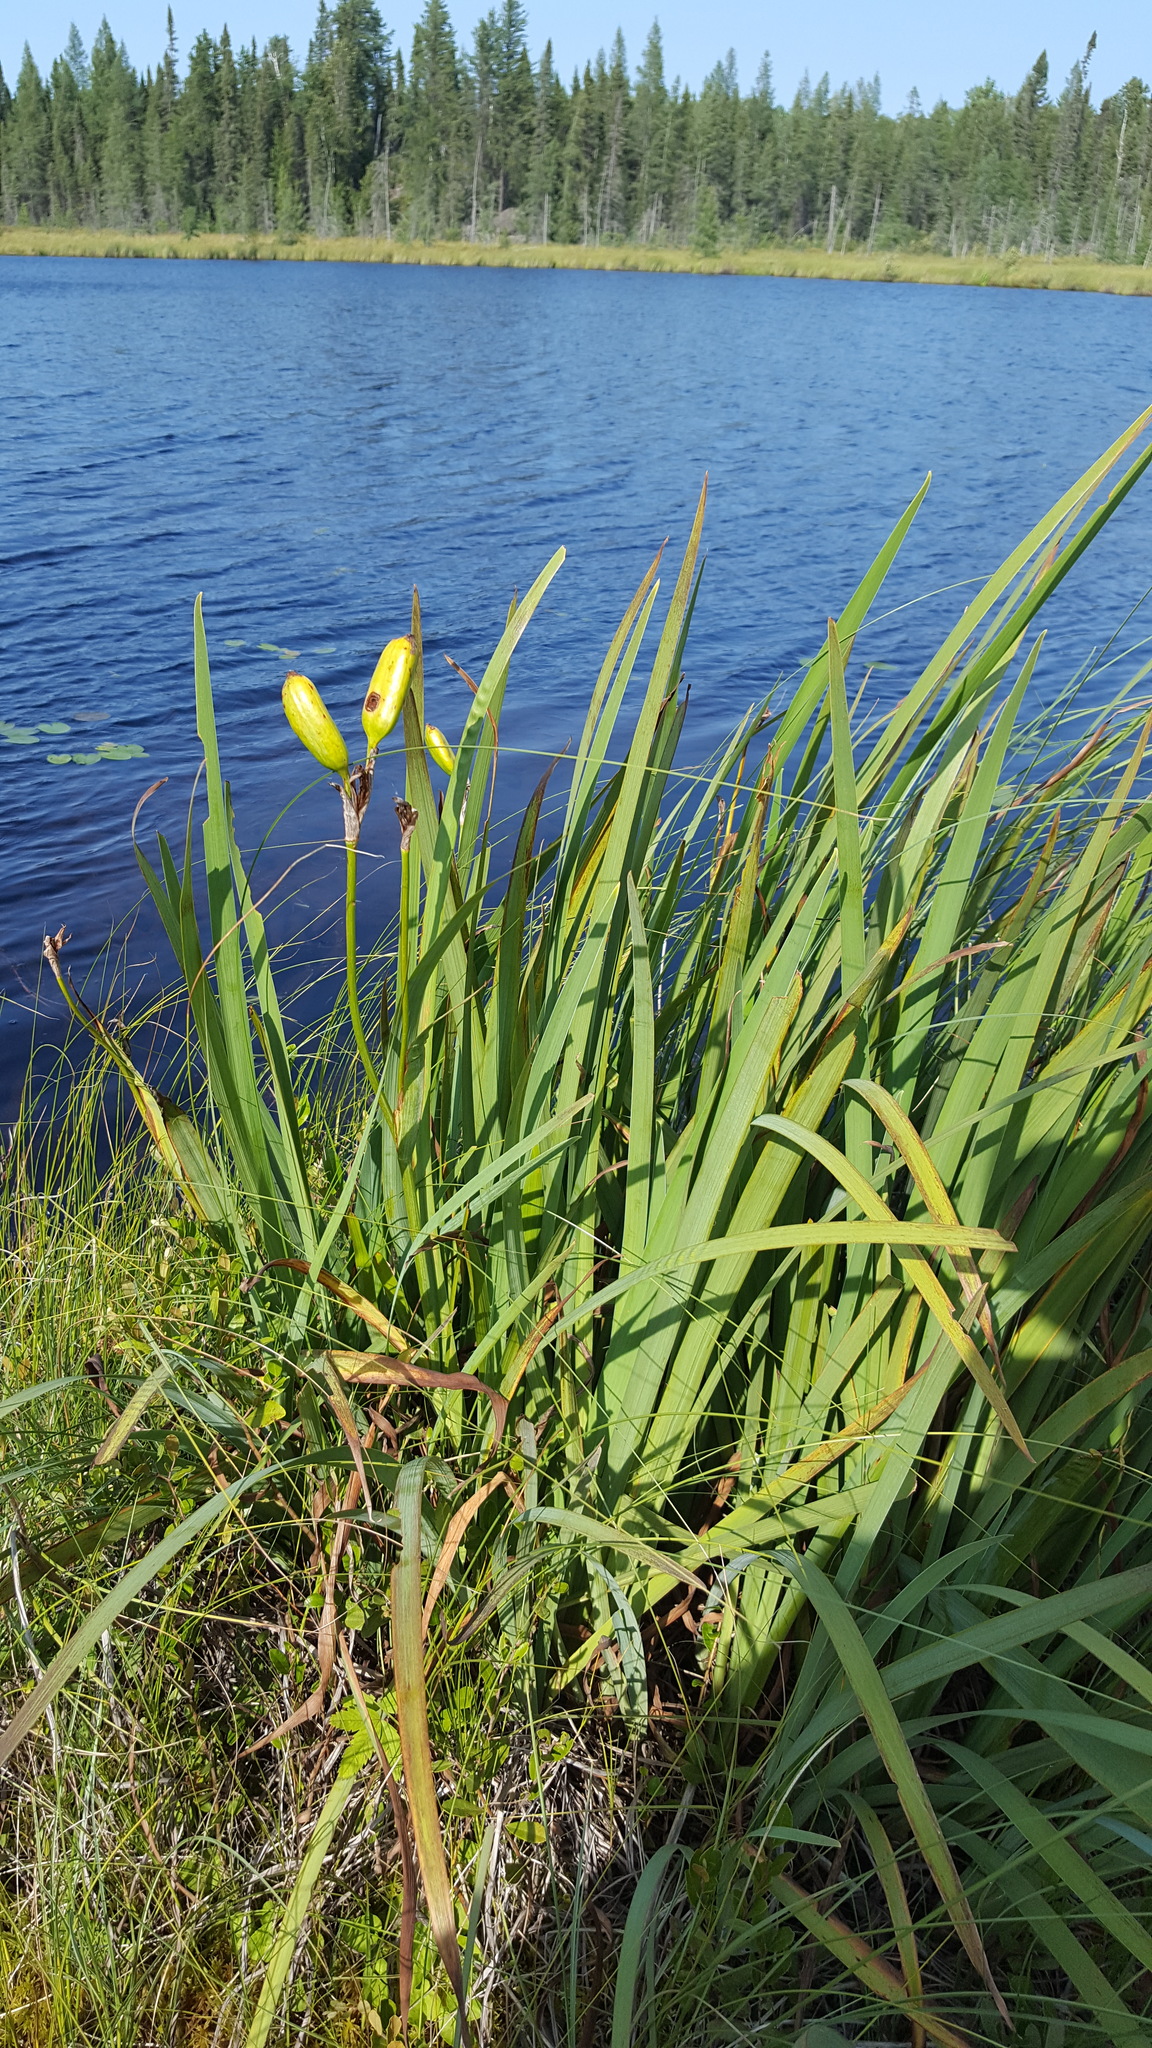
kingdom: Plantae
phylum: Tracheophyta
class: Liliopsida
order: Asparagales
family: Iridaceae
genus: Iris
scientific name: Iris versicolor
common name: Purple iris
